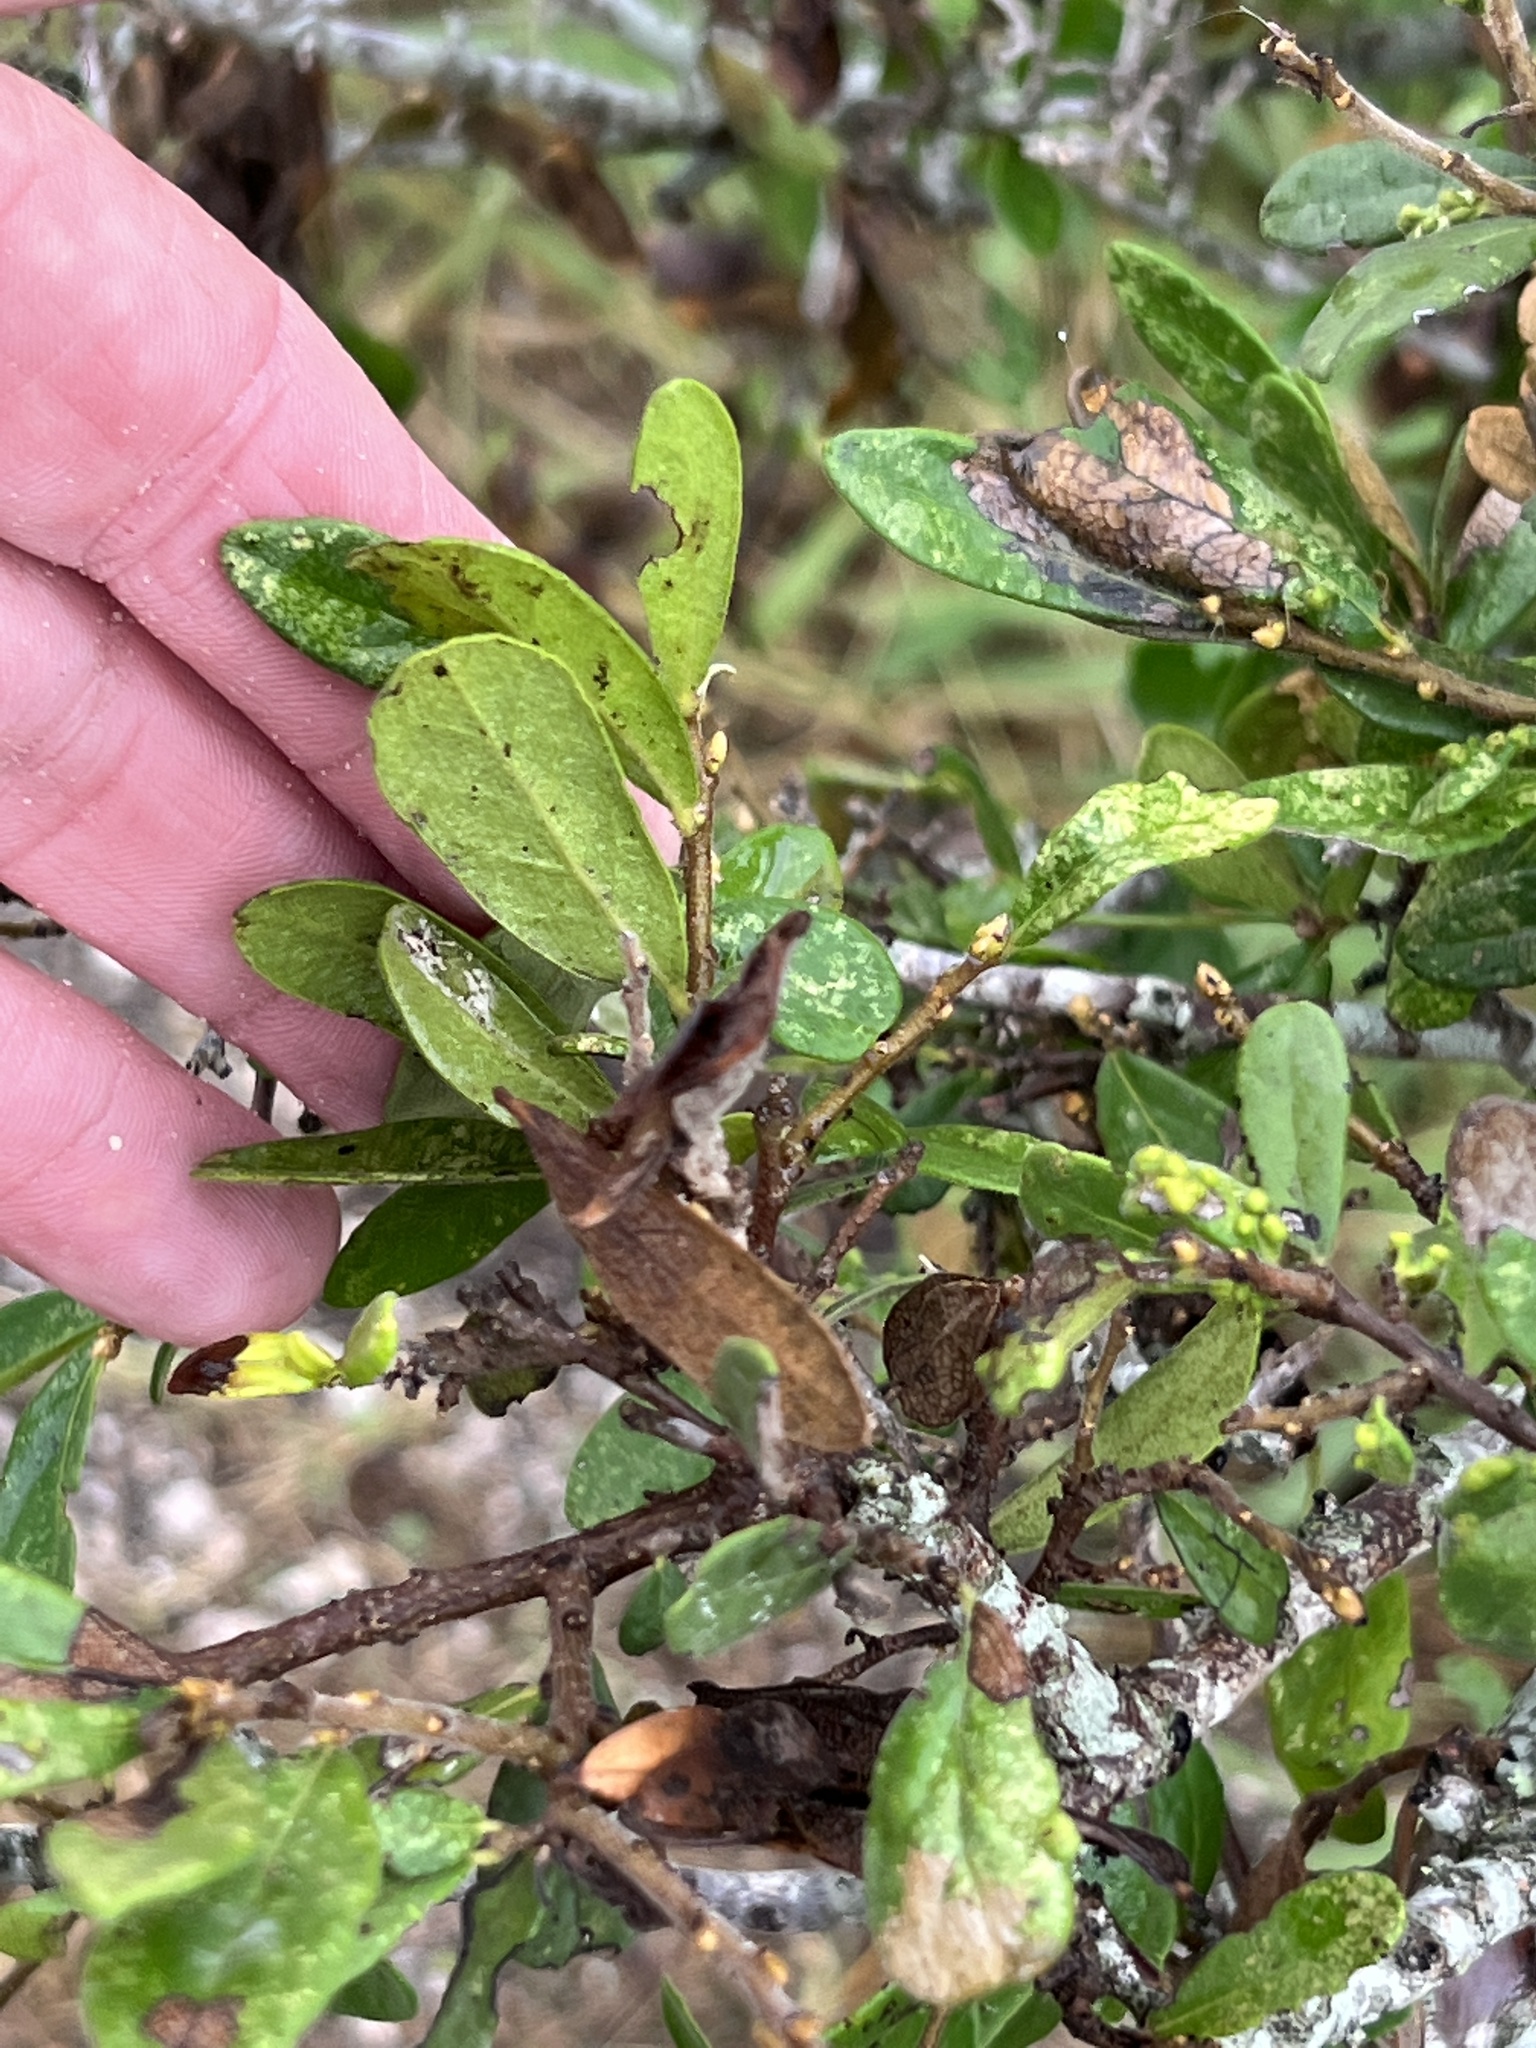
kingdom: Plantae
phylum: Tracheophyta
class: Magnoliopsida
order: Ericales
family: Ebenaceae
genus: Diospyros
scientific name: Diospyros texana
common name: Texas persimmon
